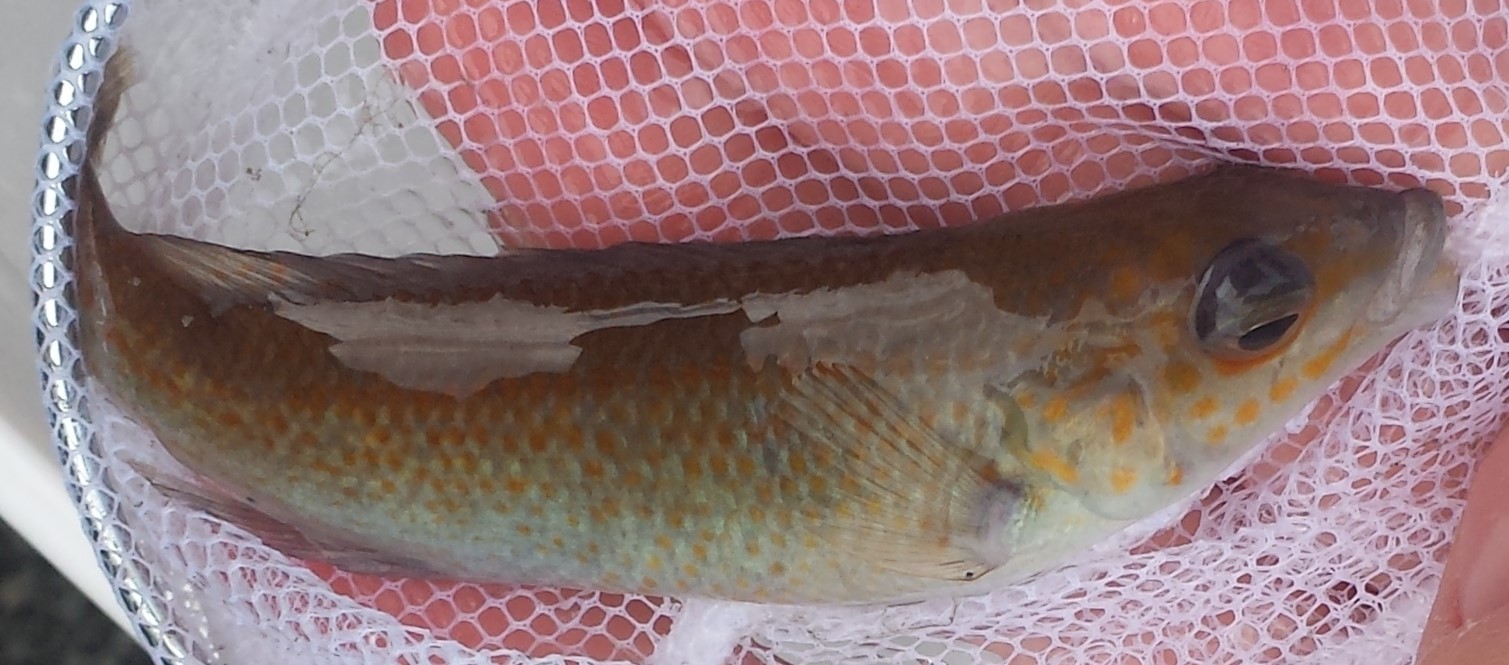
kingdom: Animalia
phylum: Chordata
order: Perciformes
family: Labridae
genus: Tautogolabrus
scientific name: Tautogolabrus adspersus
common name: Cunner
